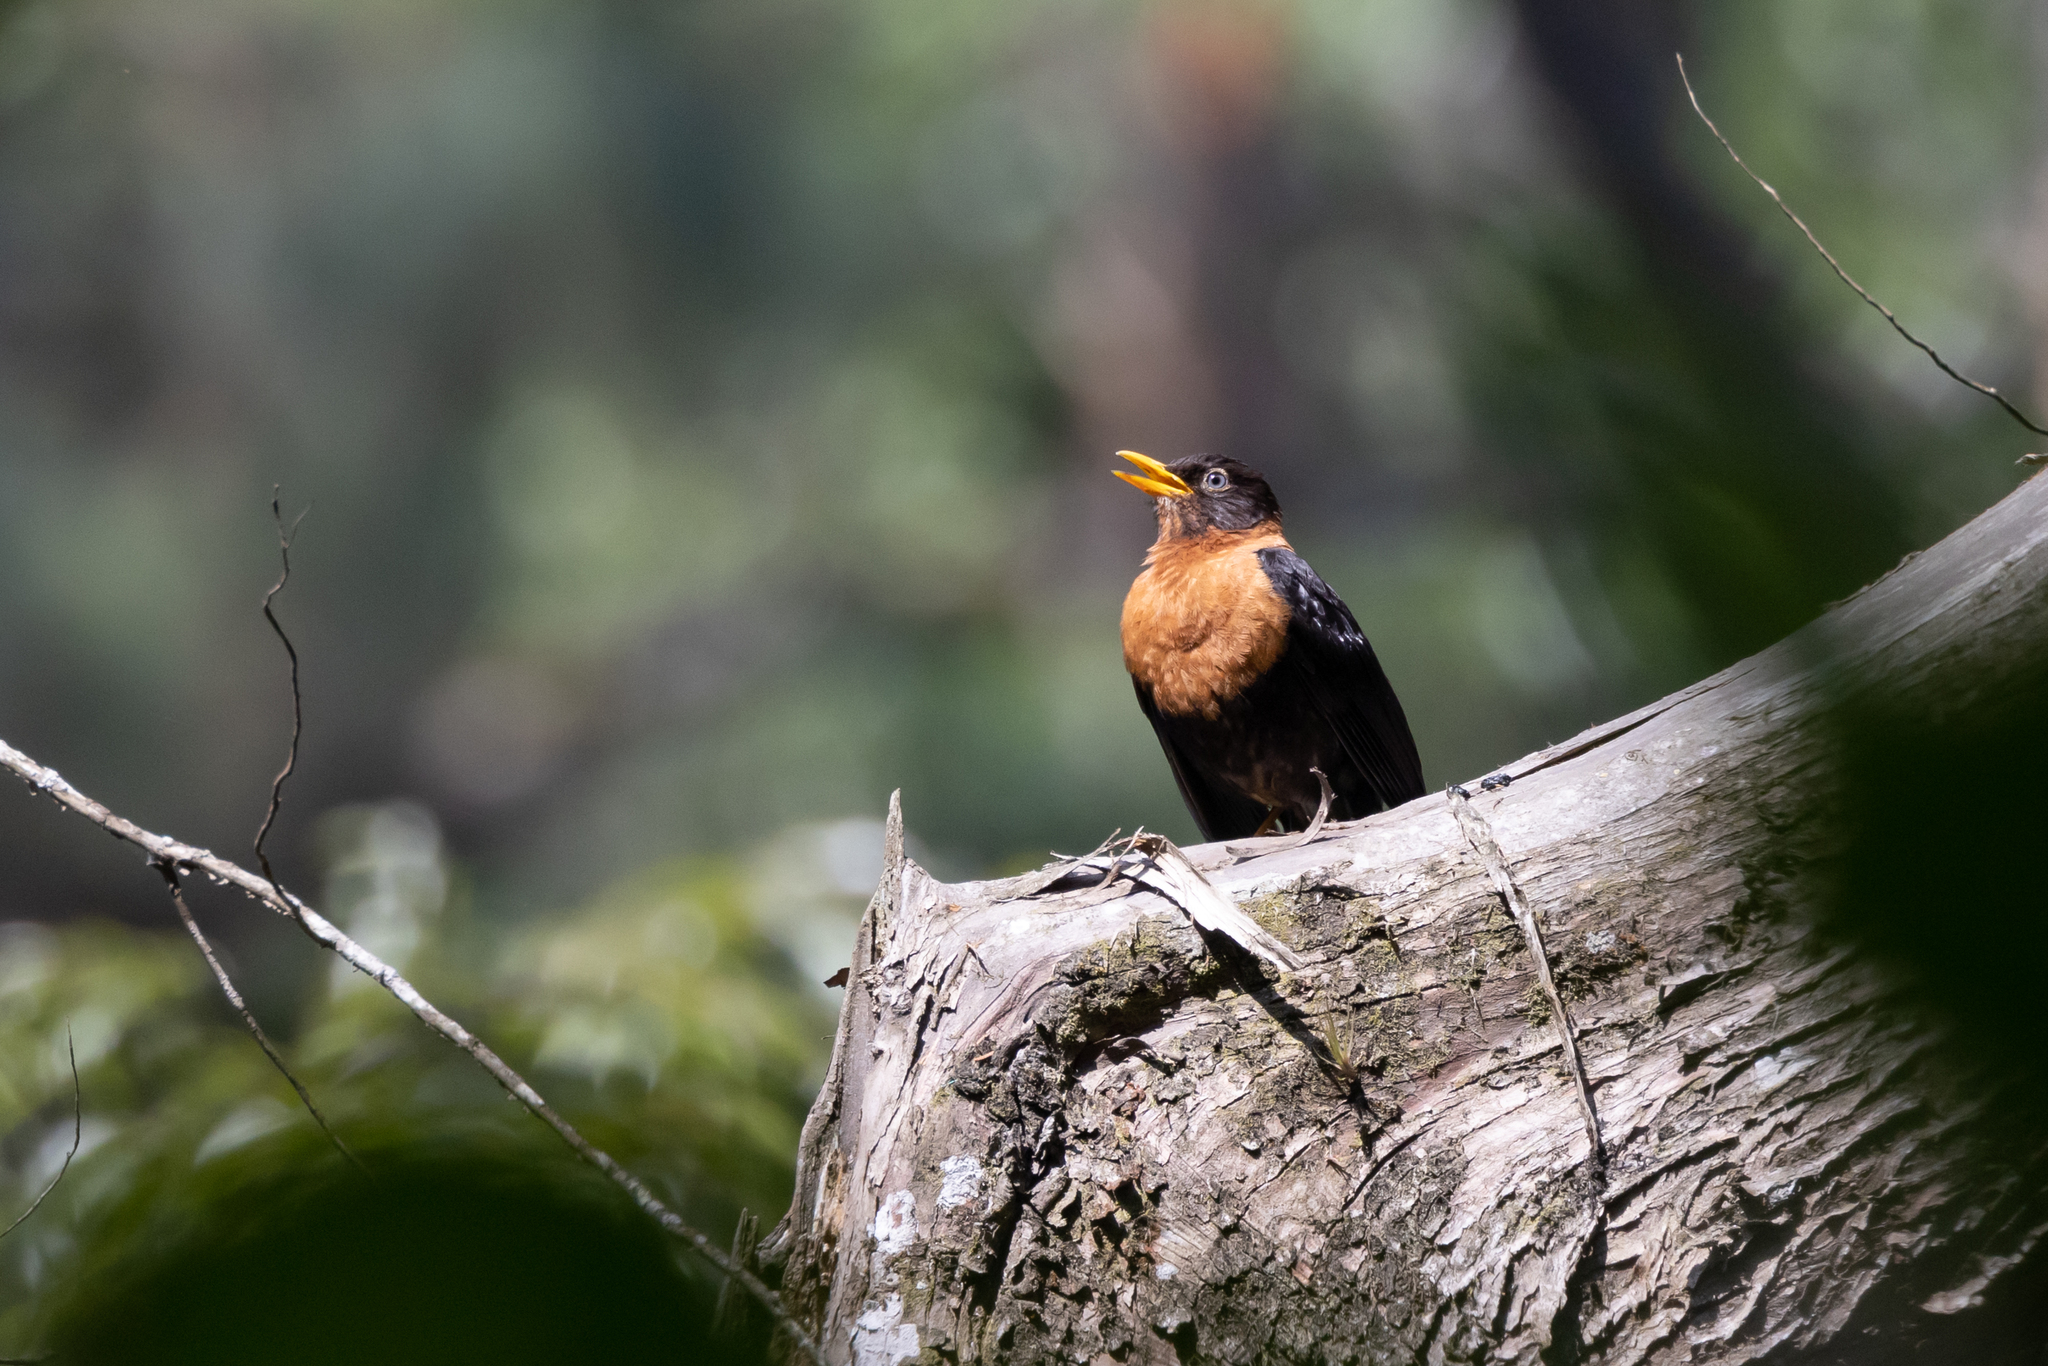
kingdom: Animalia
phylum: Chordata
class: Aves
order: Passeriformes
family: Turdidae
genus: Turdus
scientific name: Turdus rufitorques
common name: Rufous-collared thrush
